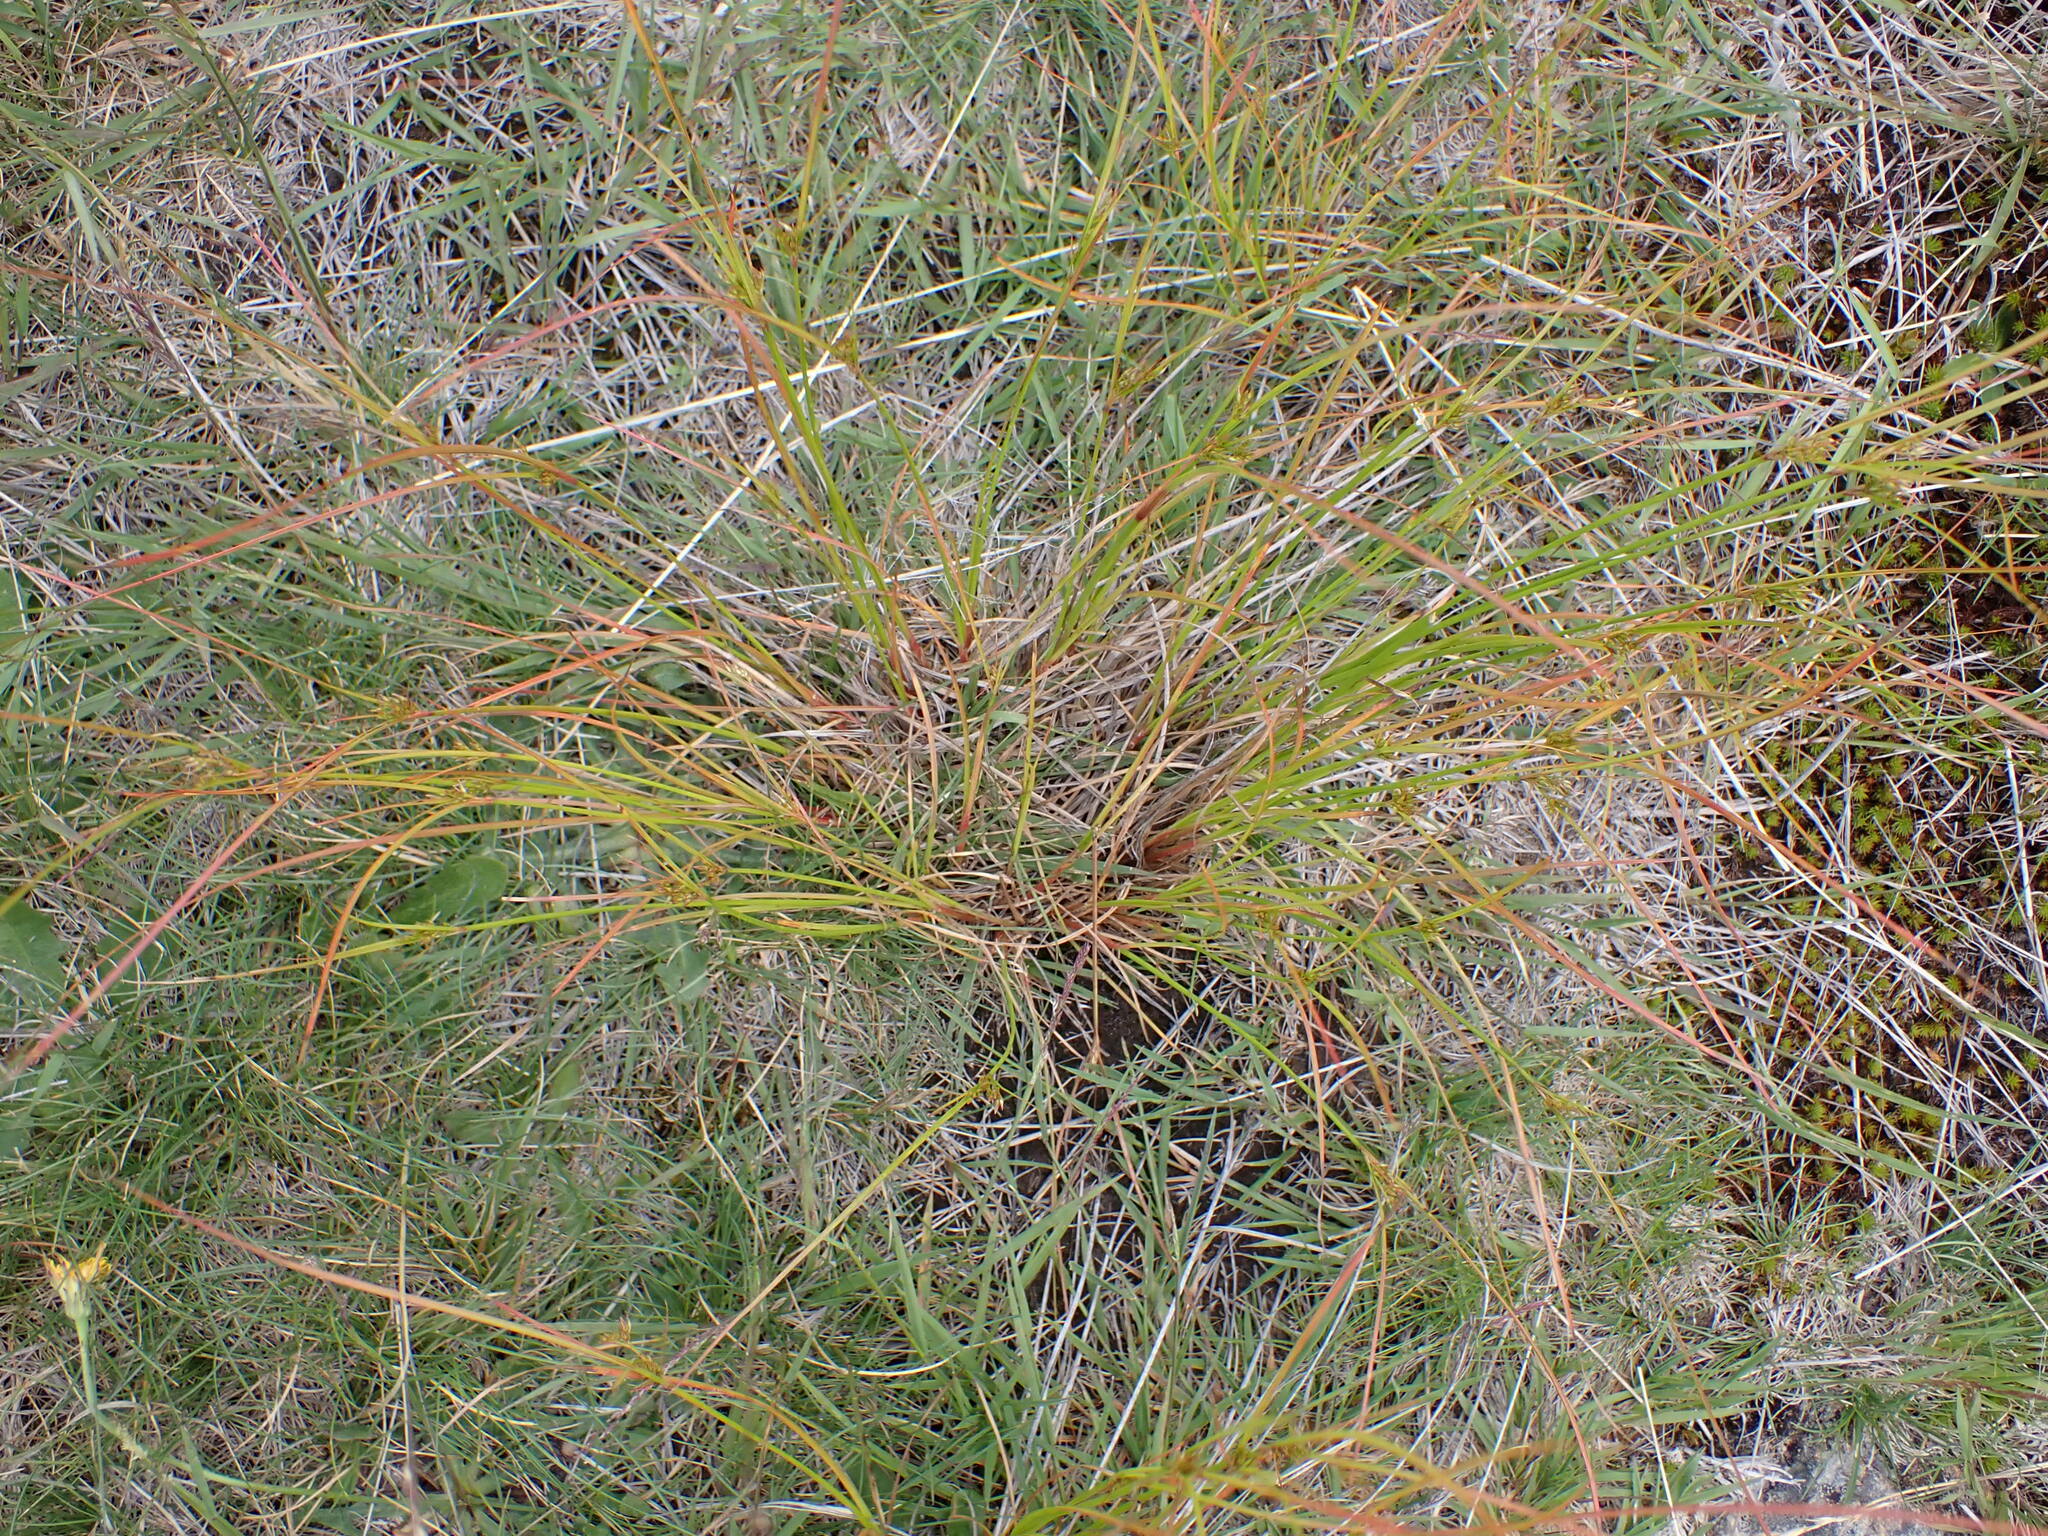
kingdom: Plantae
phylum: Tracheophyta
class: Liliopsida
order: Poales
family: Juncaceae
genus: Juncus
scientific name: Juncus tenuis
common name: Slender rush
